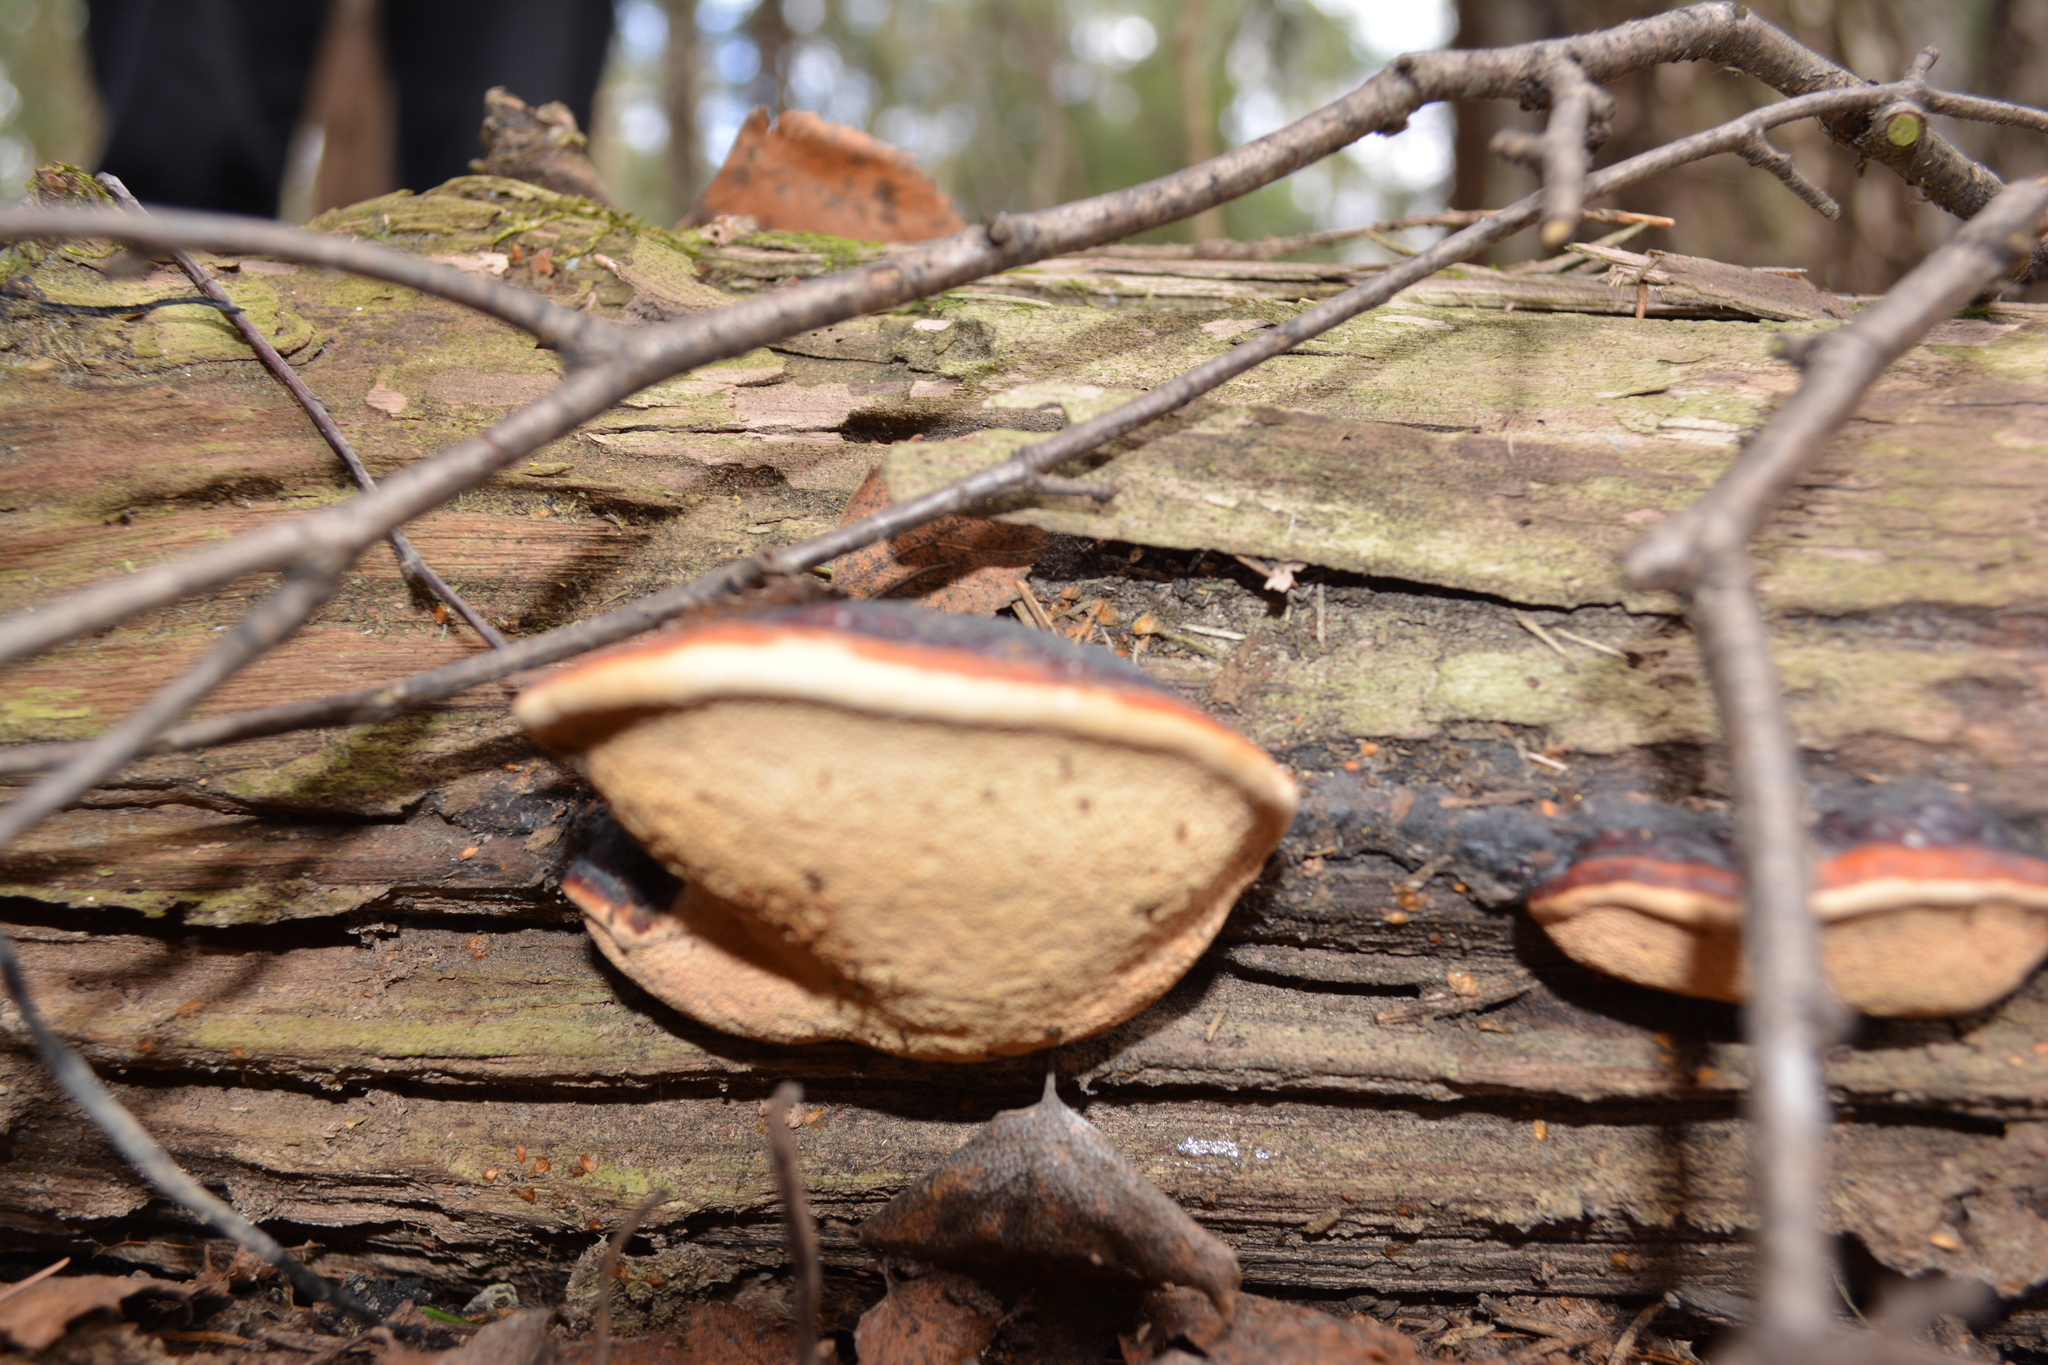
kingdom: Fungi
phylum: Basidiomycota
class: Agaricomycetes
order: Polyporales
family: Fomitopsidaceae
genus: Fomitopsis
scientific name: Fomitopsis pinicola
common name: Red-belted bracket
